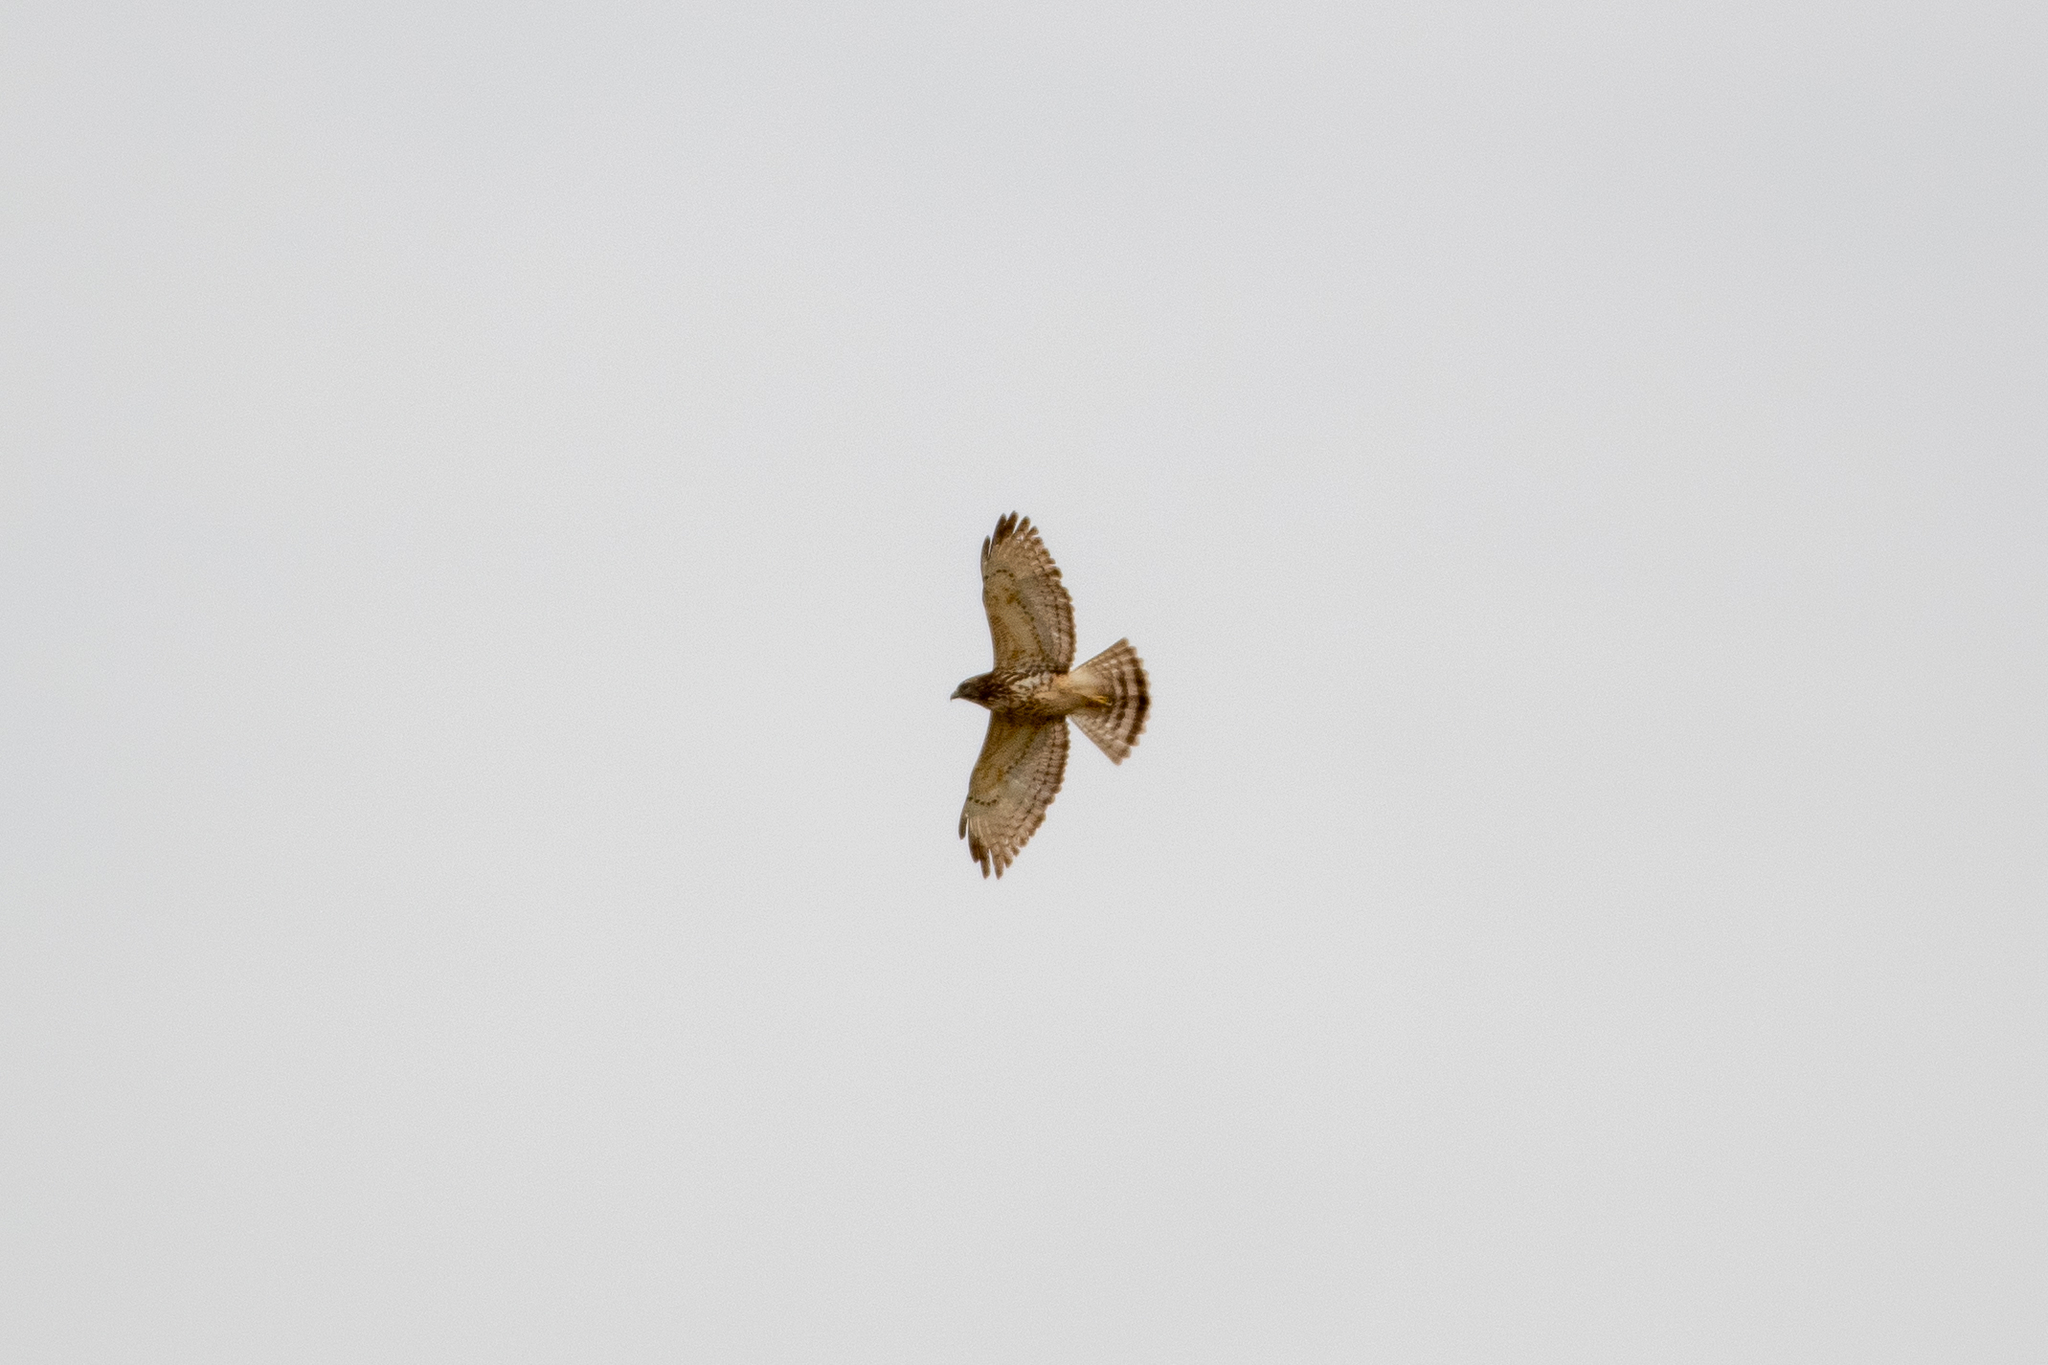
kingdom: Animalia
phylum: Chordata
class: Aves
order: Accipitriformes
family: Accipitridae
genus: Buteo
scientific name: Buteo platypterus
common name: Broad-winged hawk
